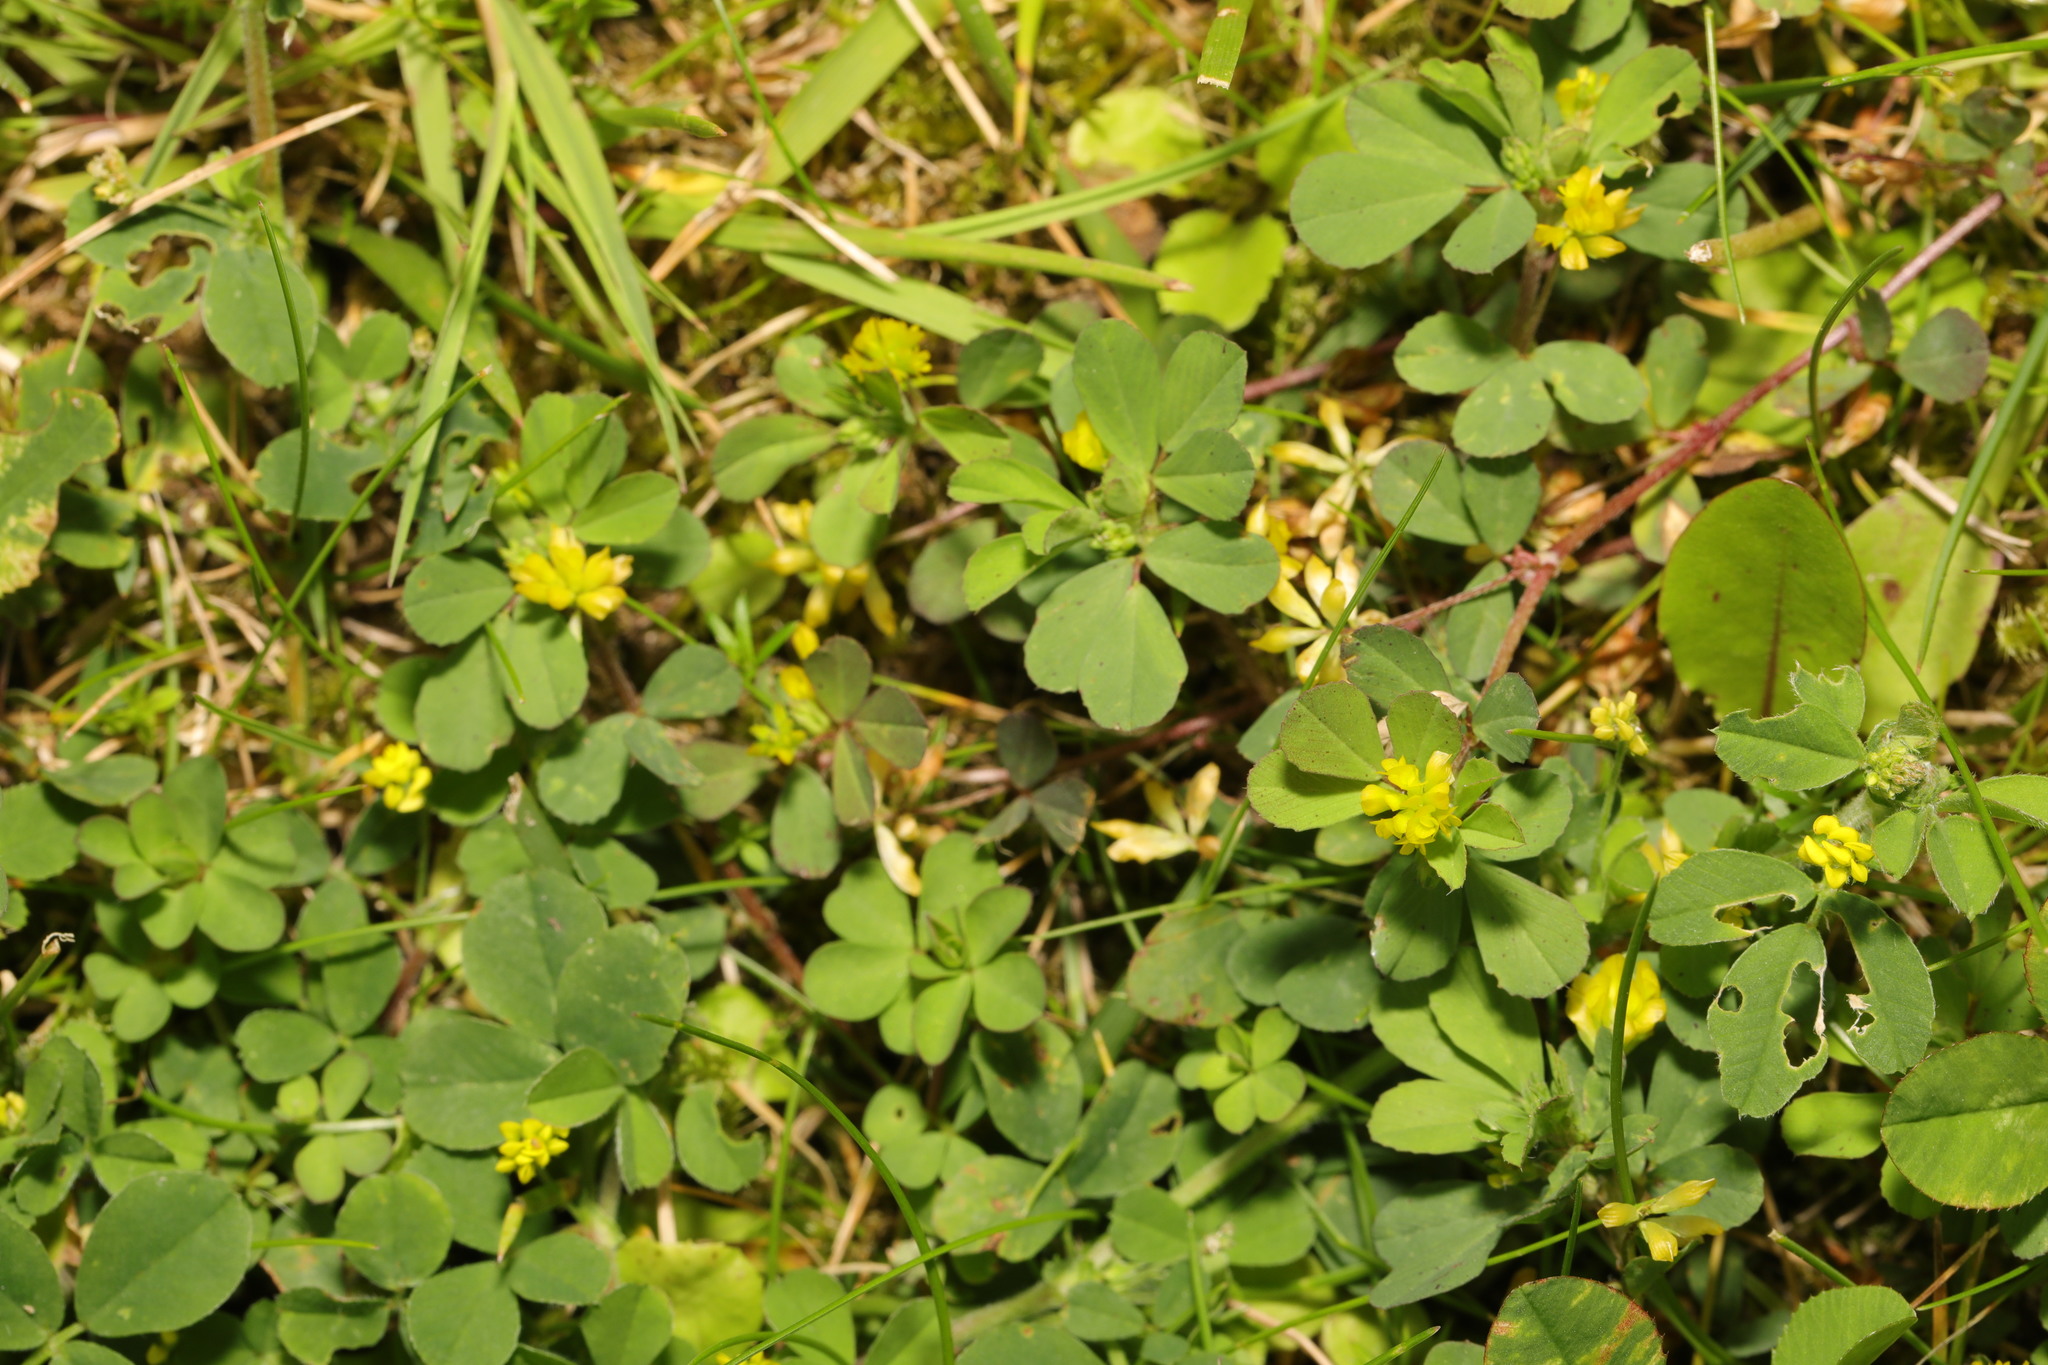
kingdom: Plantae
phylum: Tracheophyta
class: Magnoliopsida
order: Fabales
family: Fabaceae
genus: Trifolium
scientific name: Trifolium dubium
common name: Suckling clover
